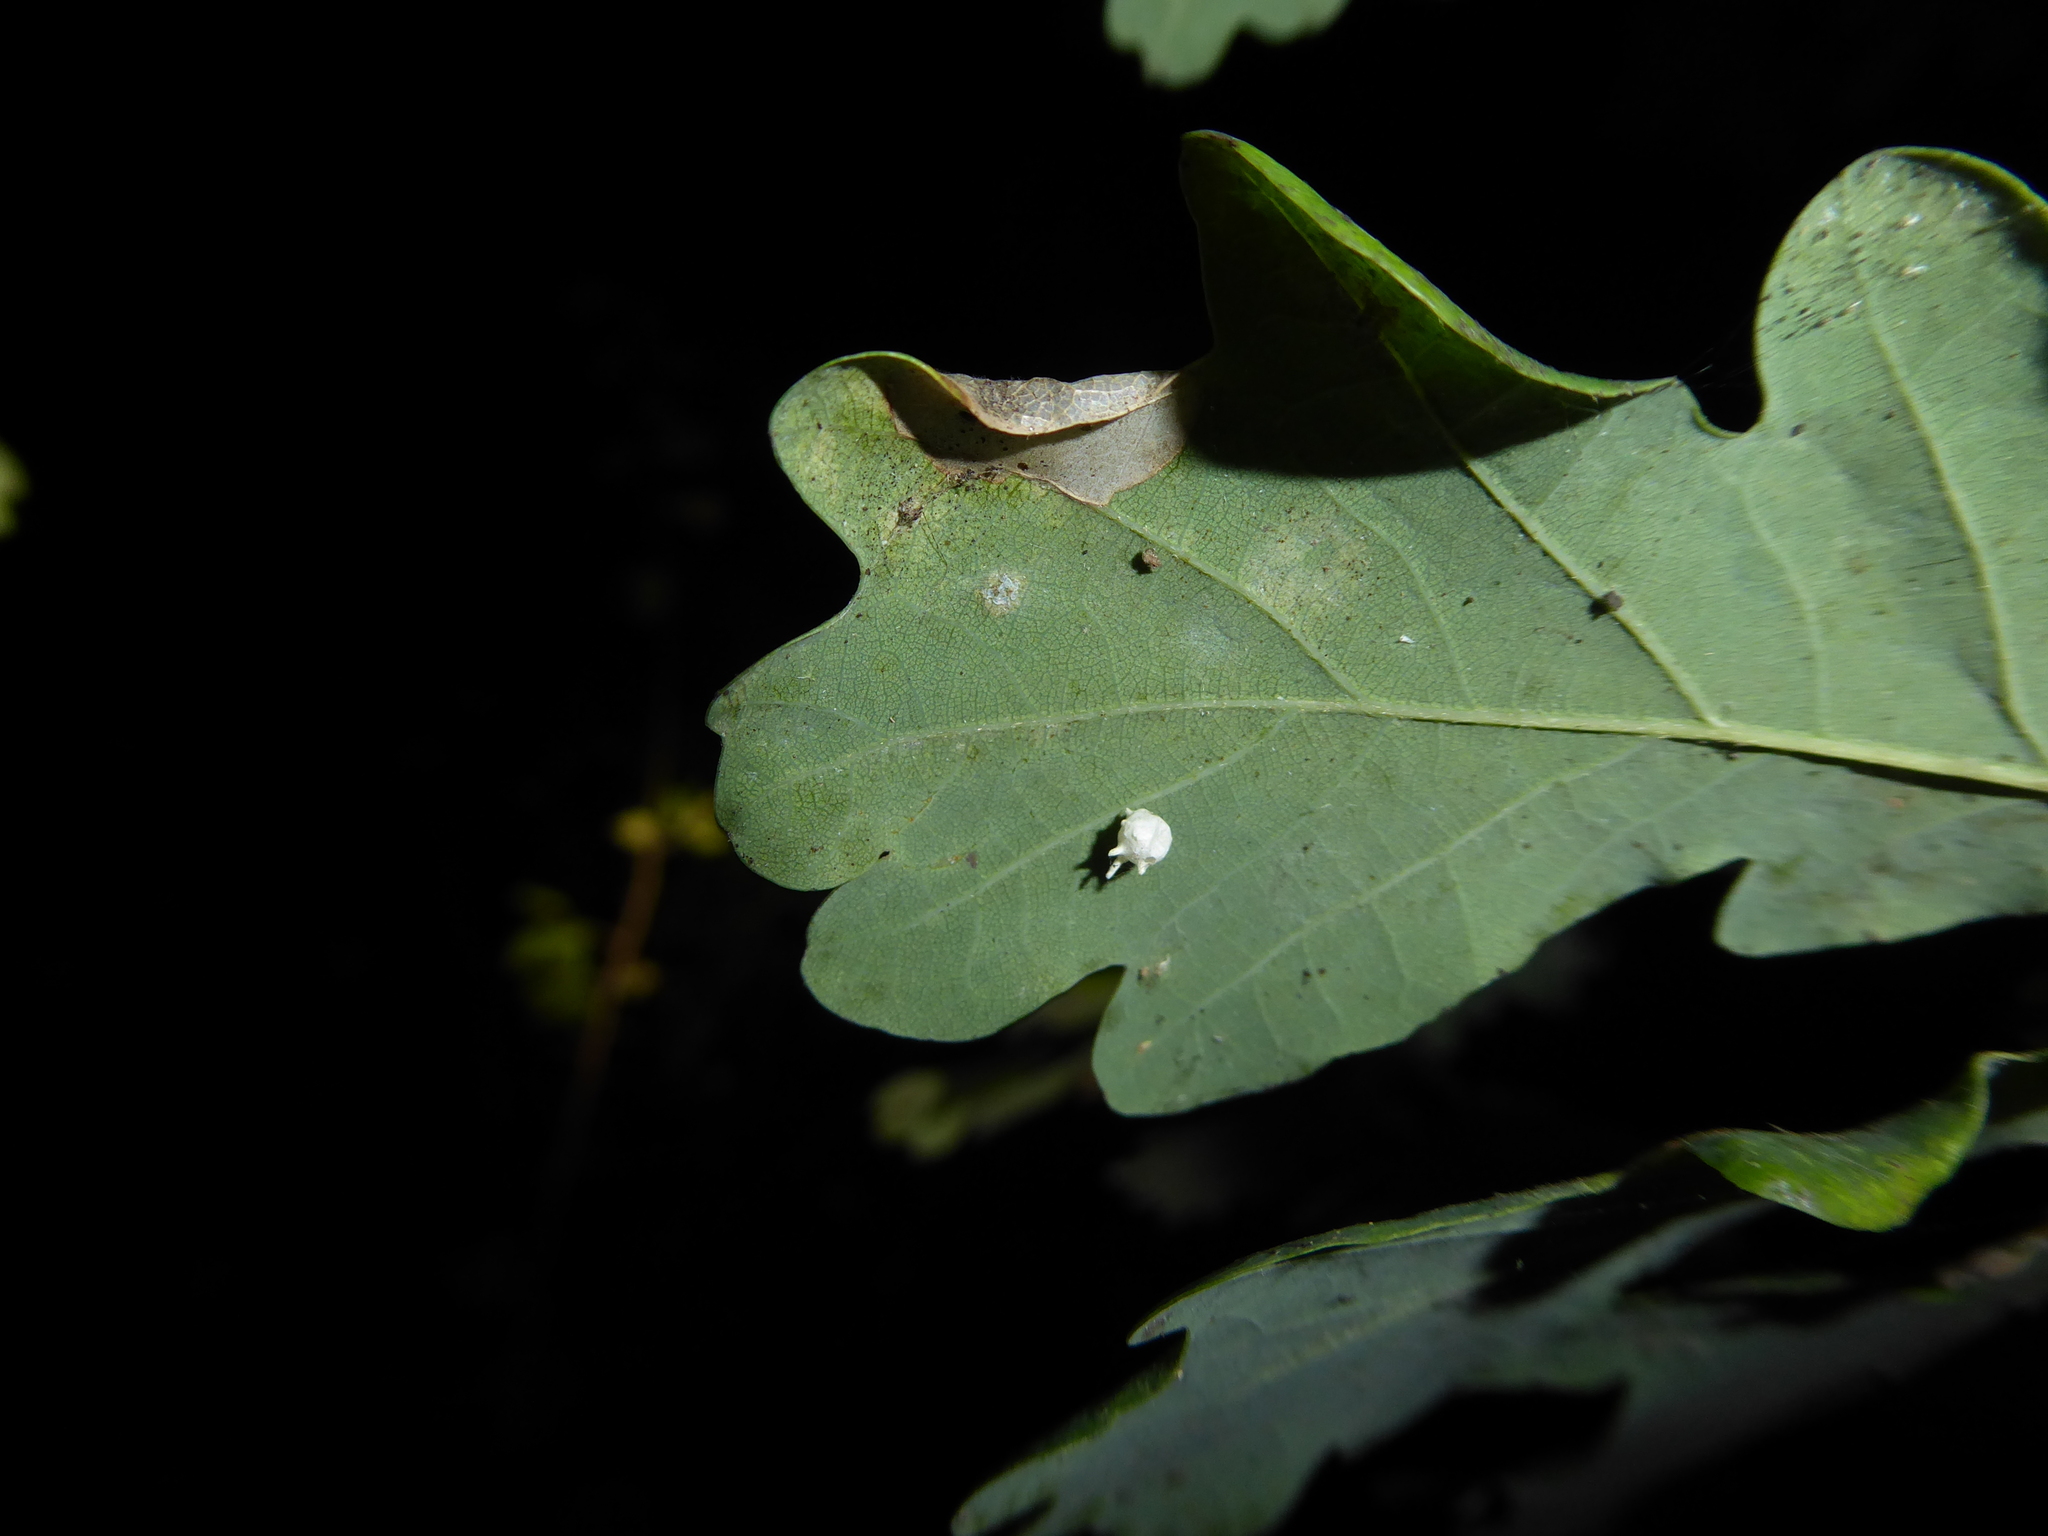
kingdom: Animalia
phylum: Arthropoda
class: Arachnida
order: Araneae
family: Theridiidae
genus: Paidiscura
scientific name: Paidiscura pallens
